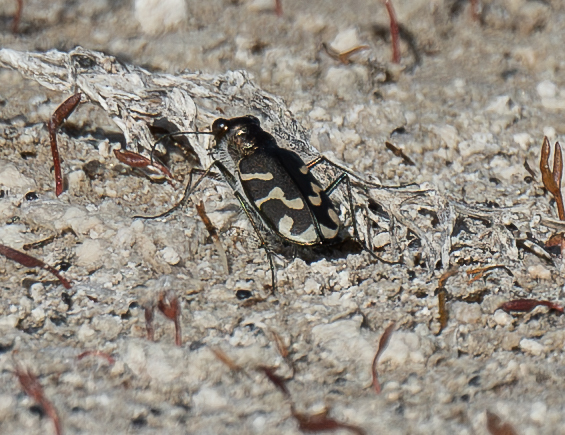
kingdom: Animalia
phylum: Arthropoda
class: Insecta
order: Coleoptera
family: Carabidae
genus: Cicindela
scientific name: Cicindela tranquebarica
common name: Oblique-lined tiger beetle
